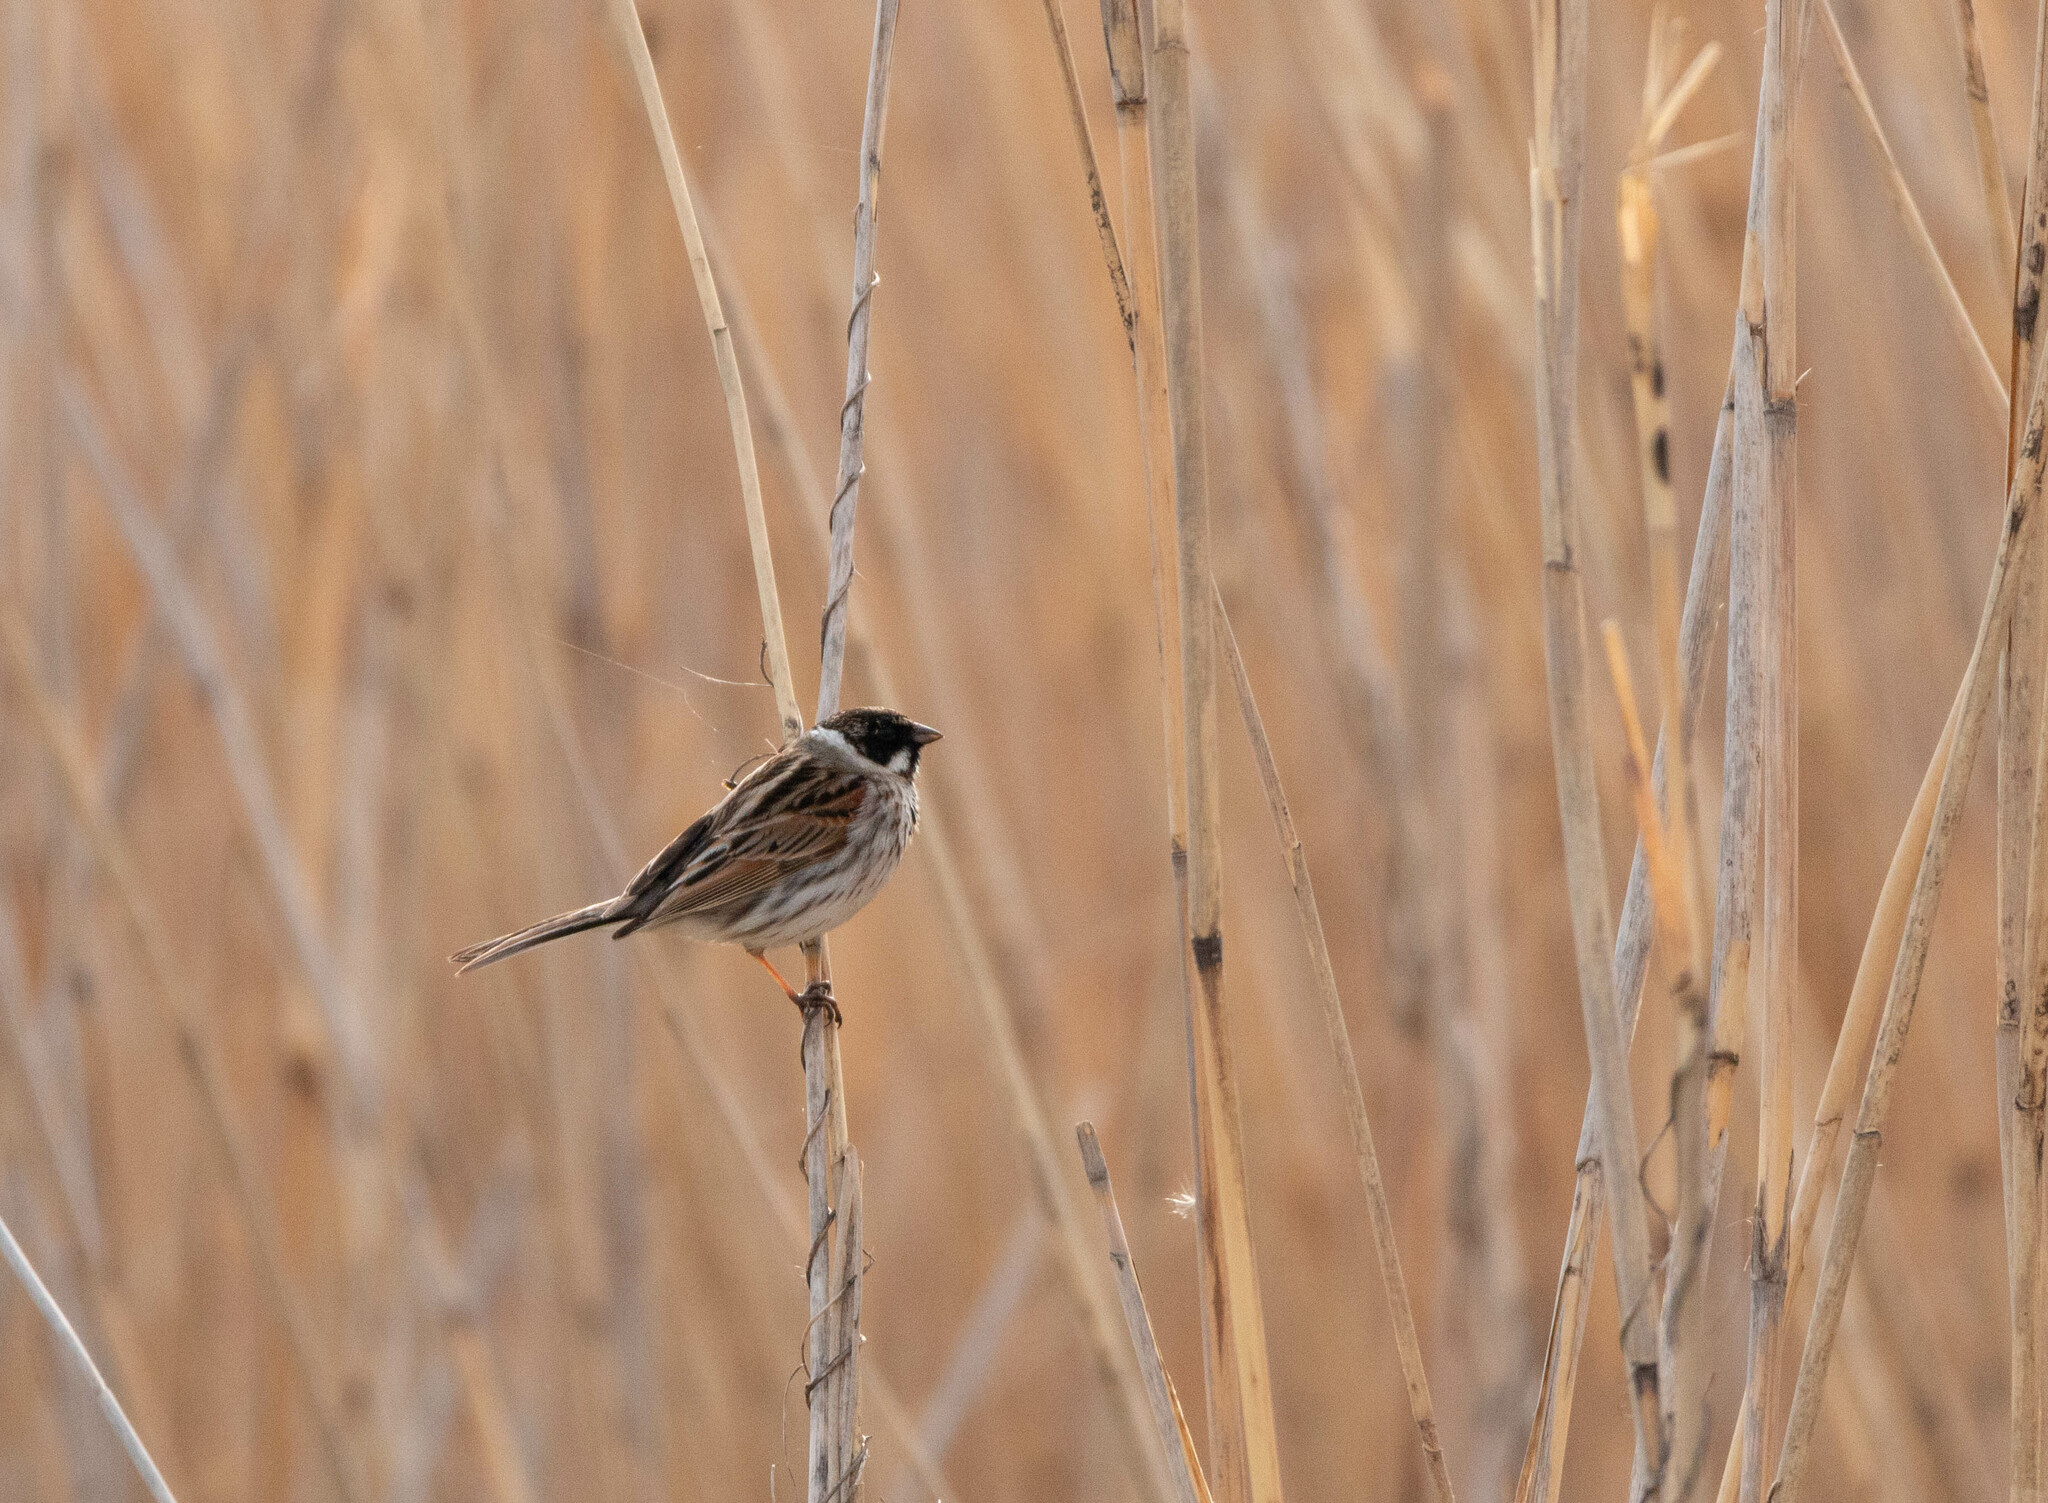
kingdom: Animalia
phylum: Chordata
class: Aves
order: Passeriformes
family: Emberizidae
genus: Emberiza
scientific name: Emberiza schoeniclus
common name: Reed bunting
